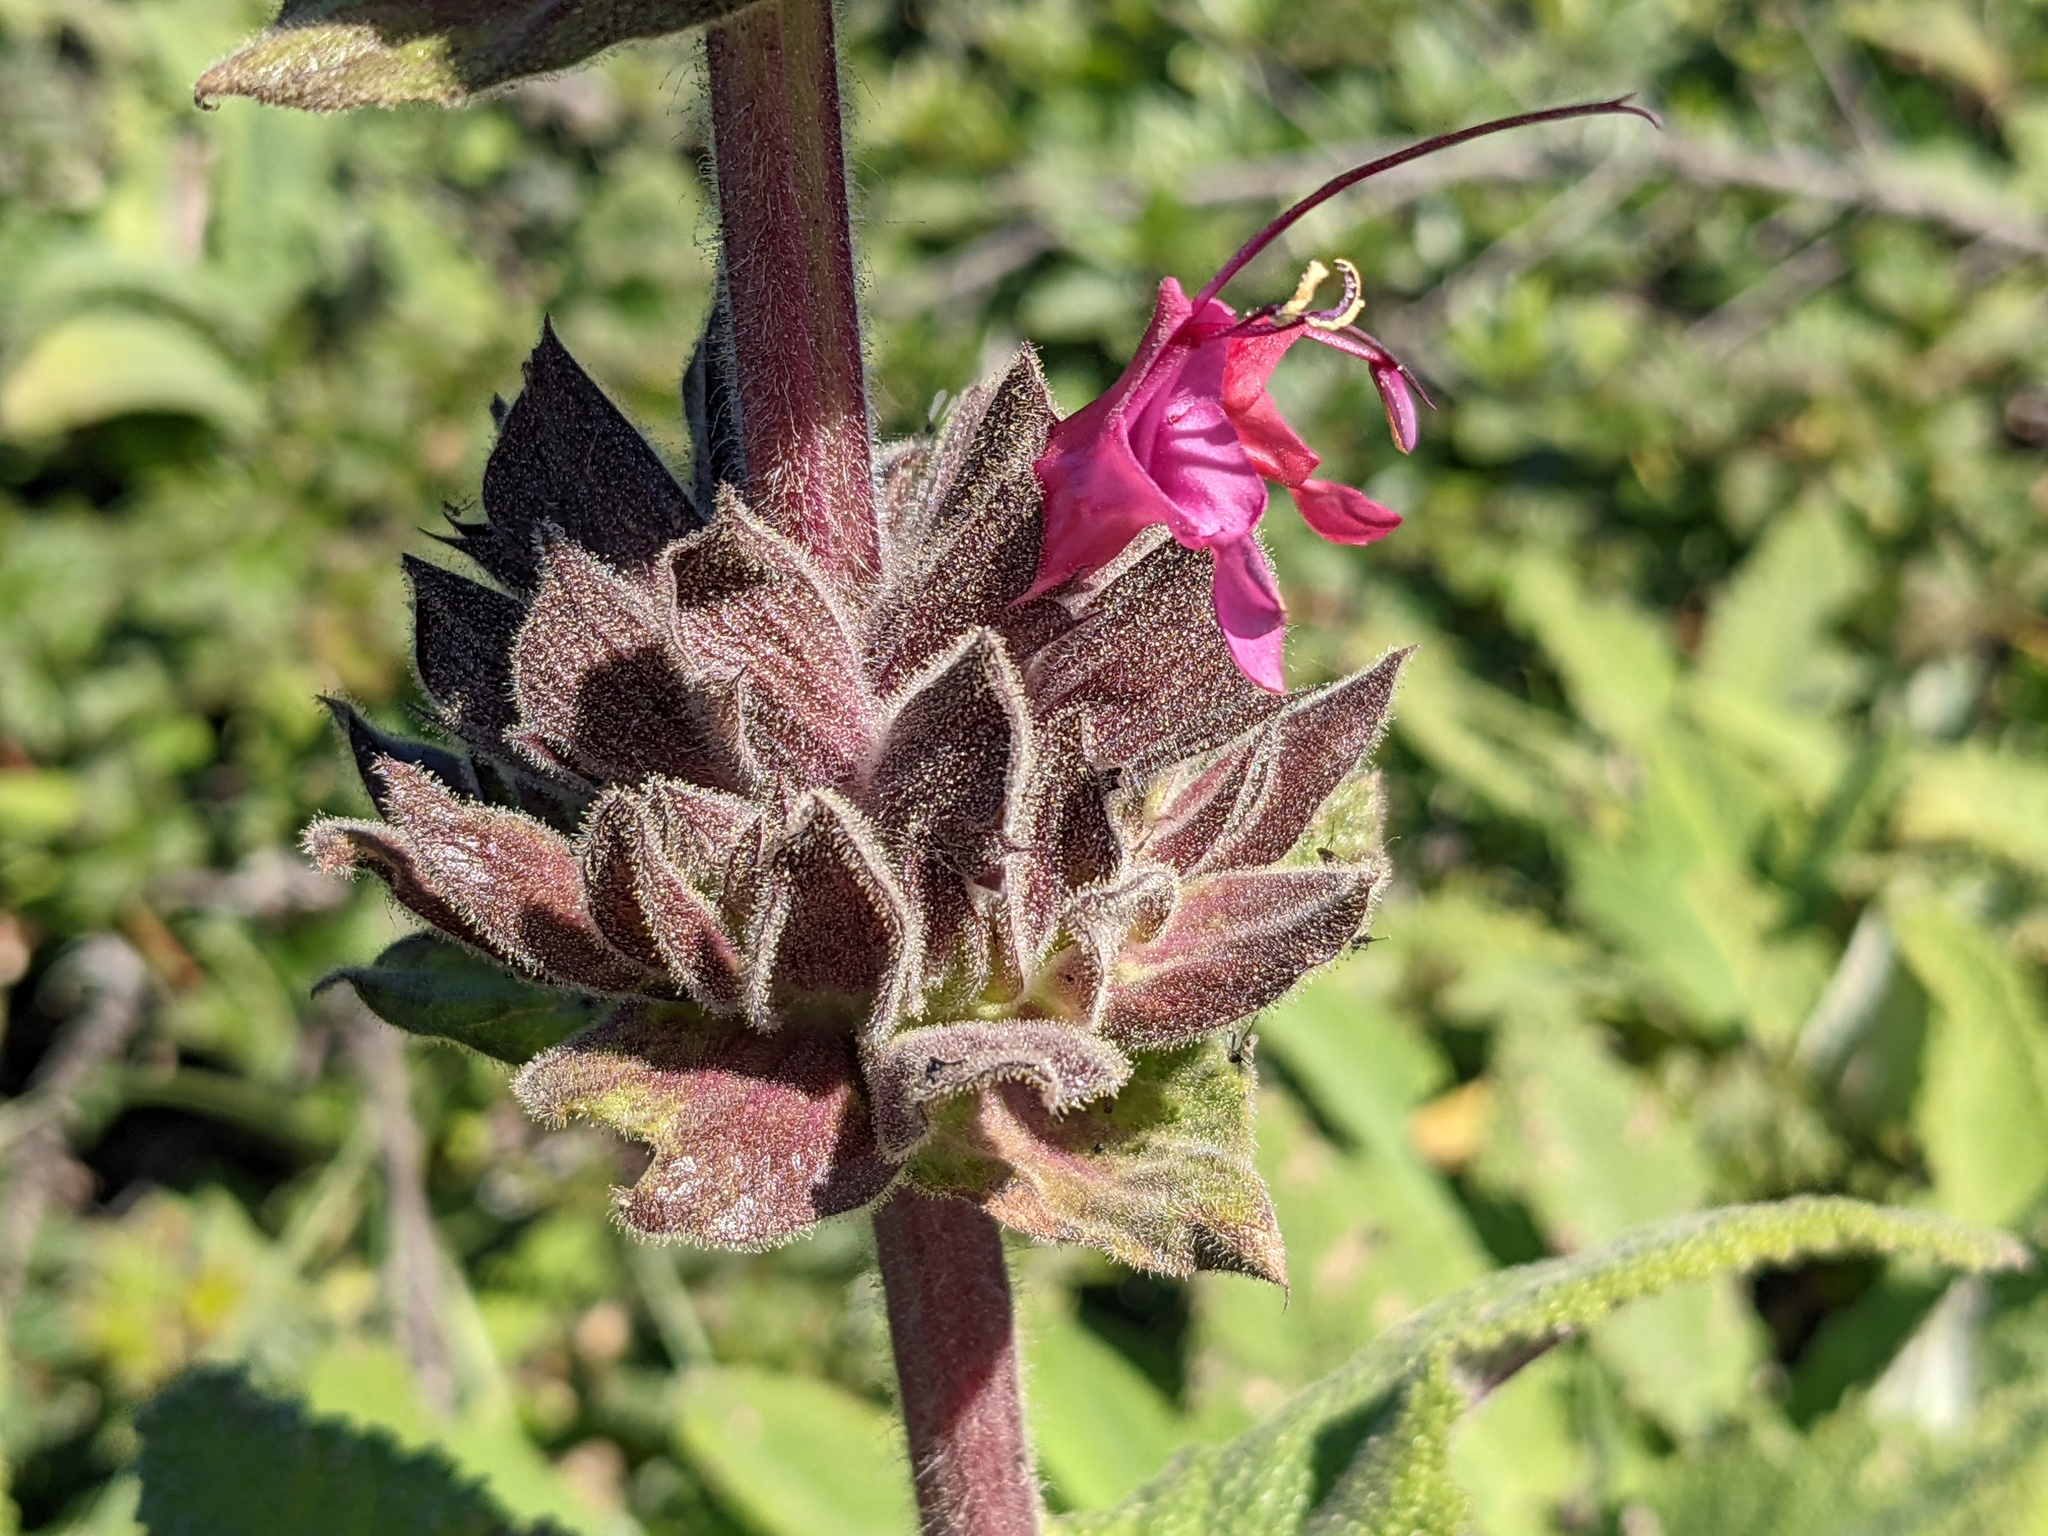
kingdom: Plantae
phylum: Tracheophyta
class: Magnoliopsida
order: Lamiales
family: Lamiaceae
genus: Salvia
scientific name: Salvia spathacea
